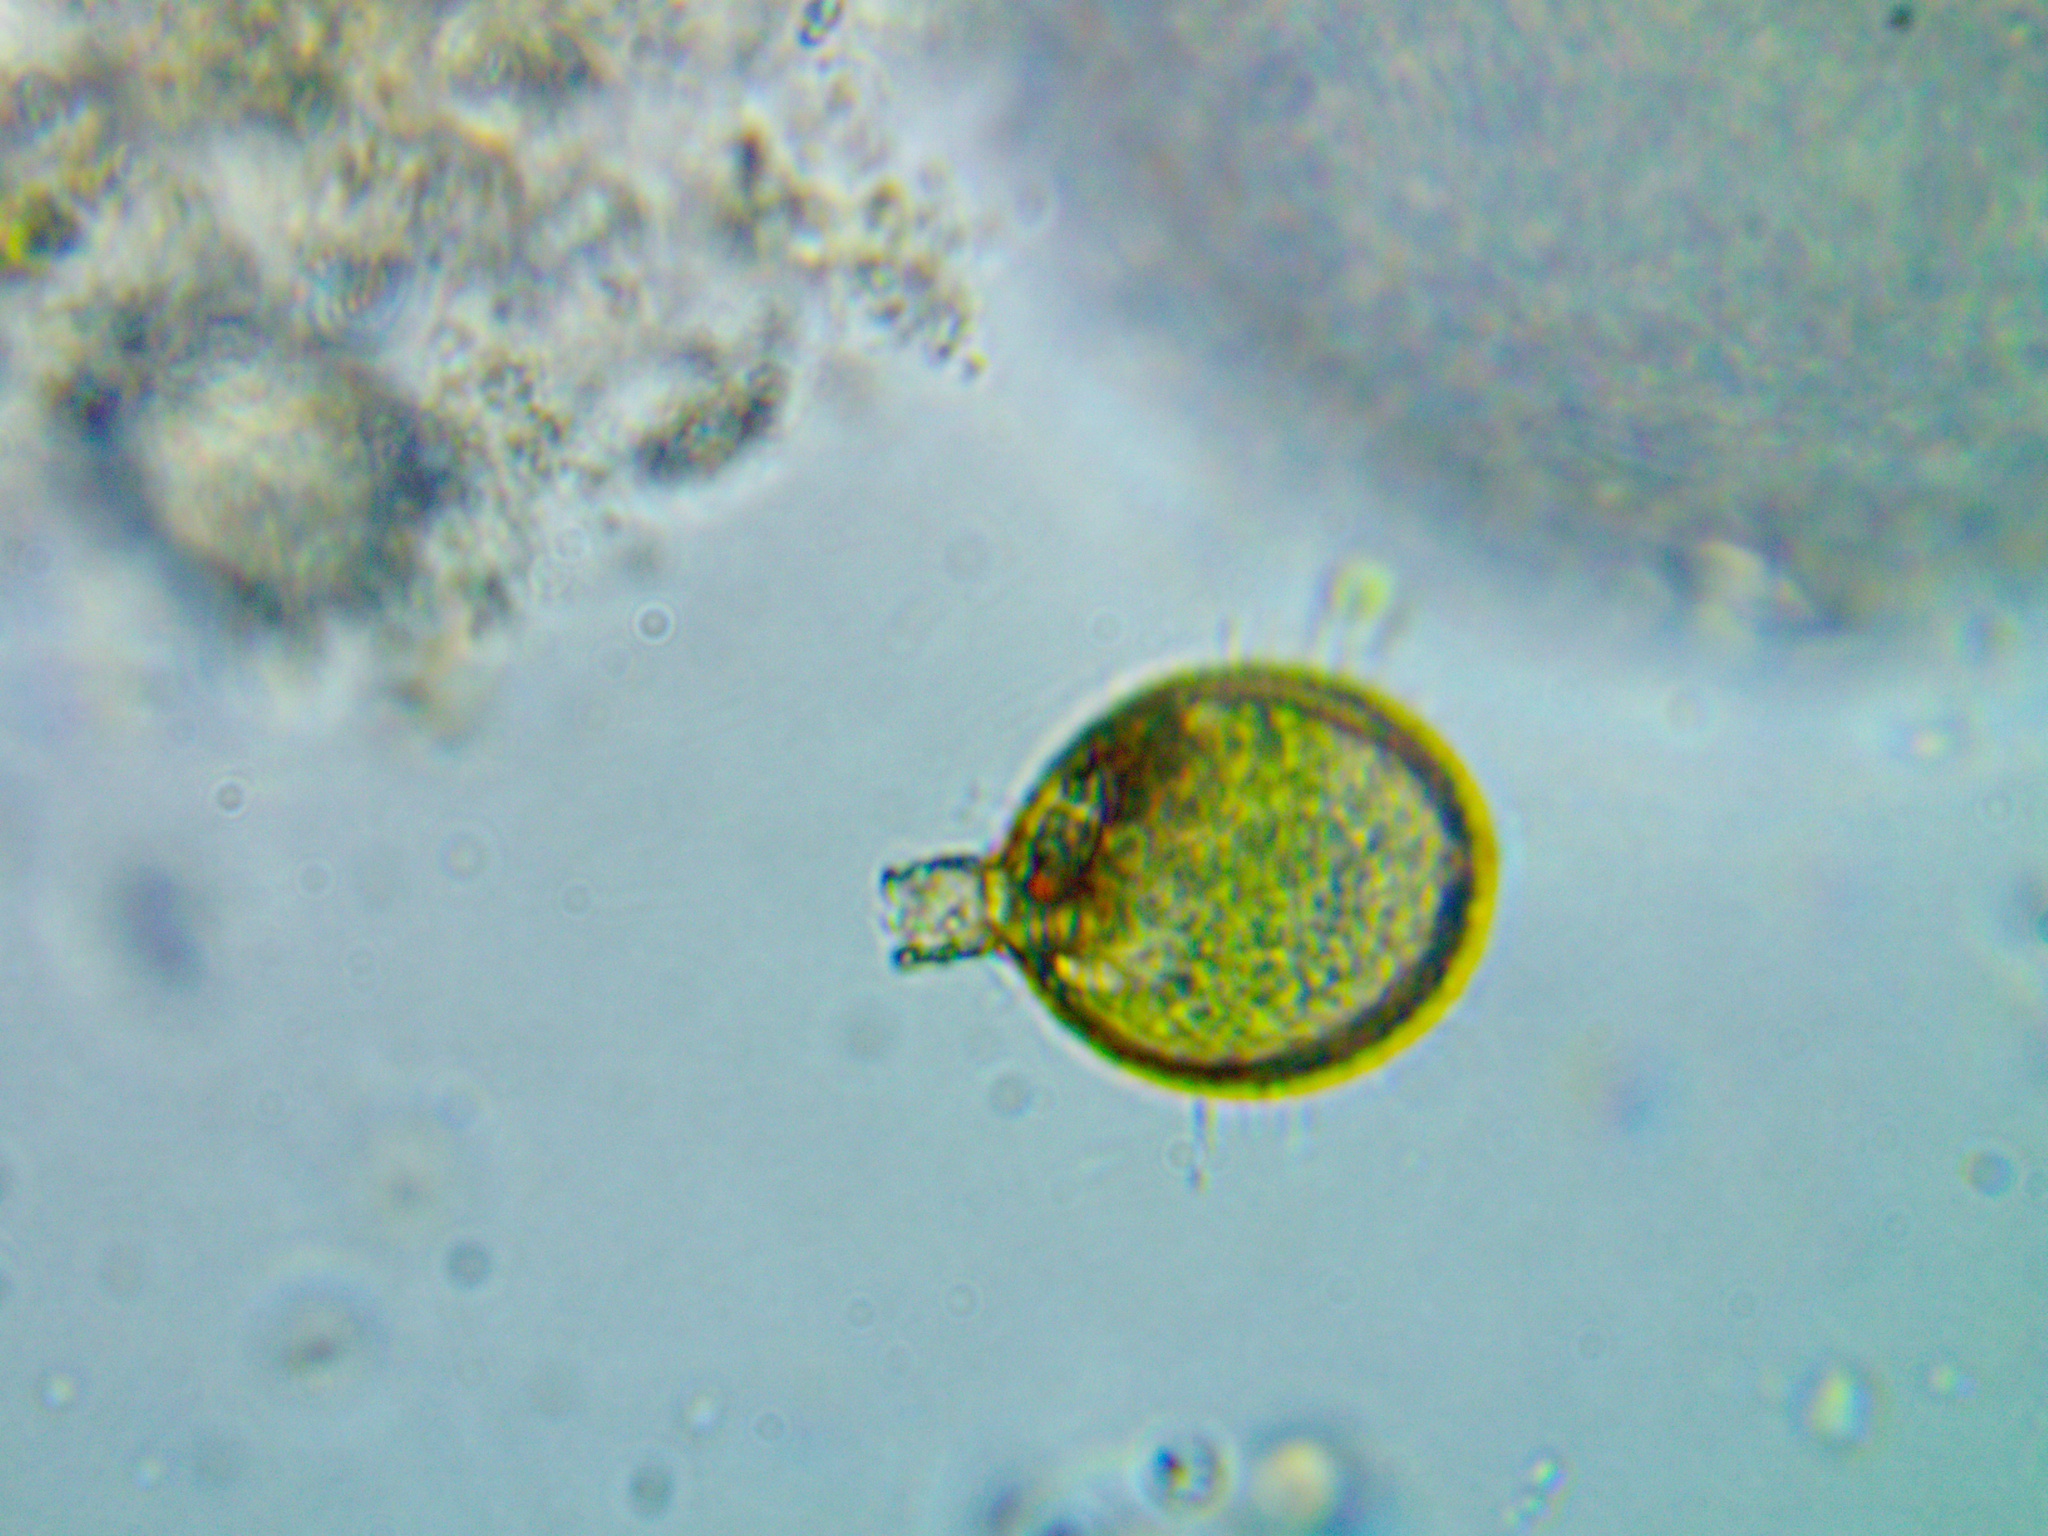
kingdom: Protozoa
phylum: Euglenozoa
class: Euglenoidea
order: Euglenida
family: Euglenaceae
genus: Trachelomonas
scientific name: Trachelomonas planctonica
